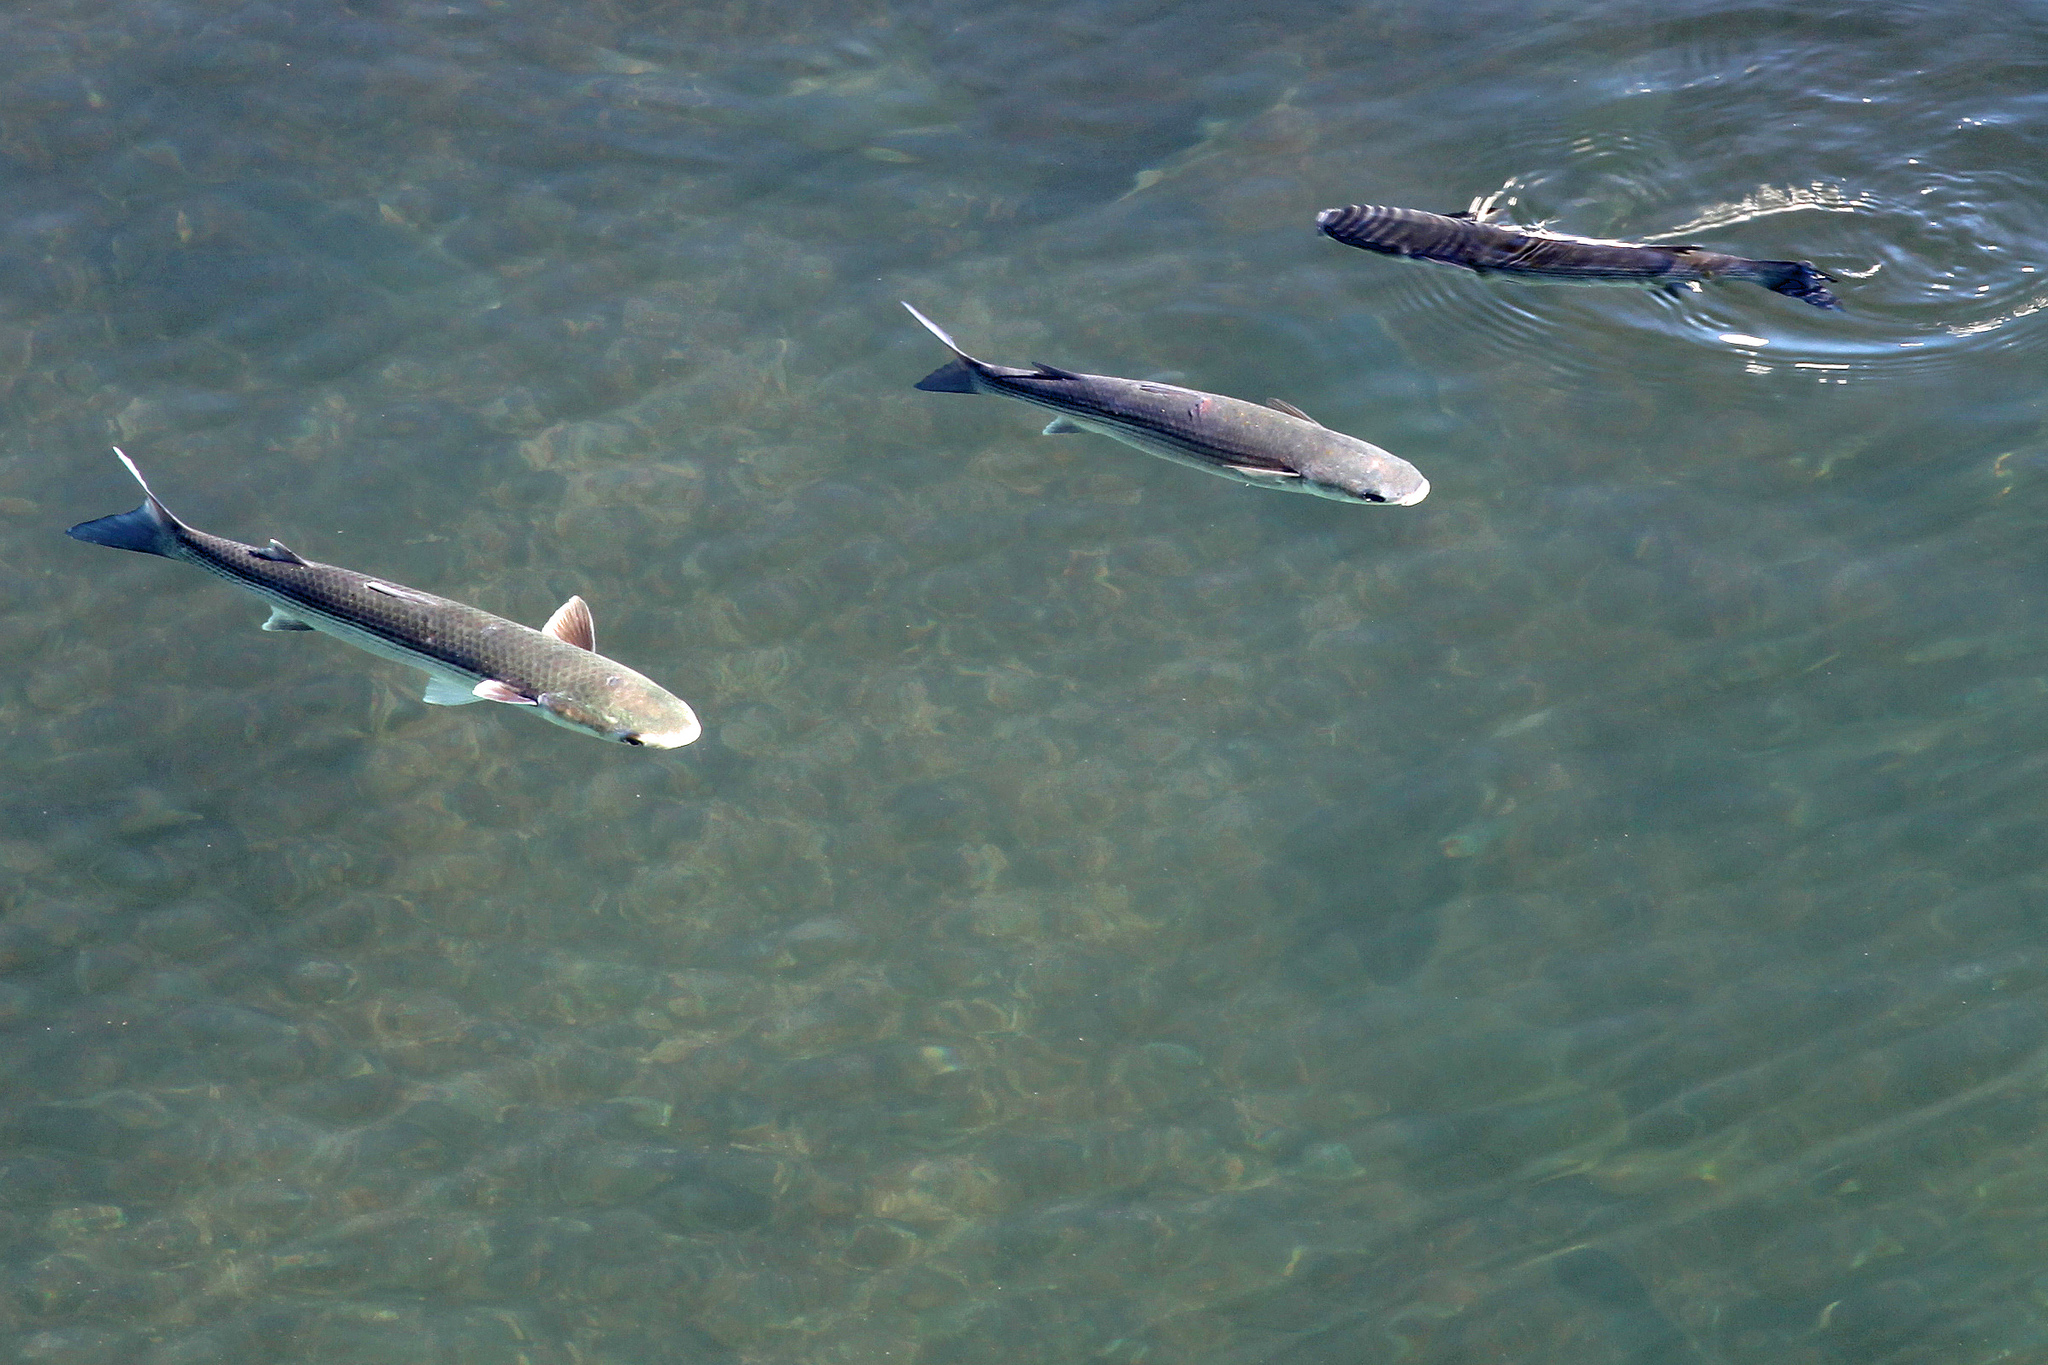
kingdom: Animalia
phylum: Chordata
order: Mugiliformes
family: Mugilidae
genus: Mugil
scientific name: Mugil cephalus
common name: Grey mullet
